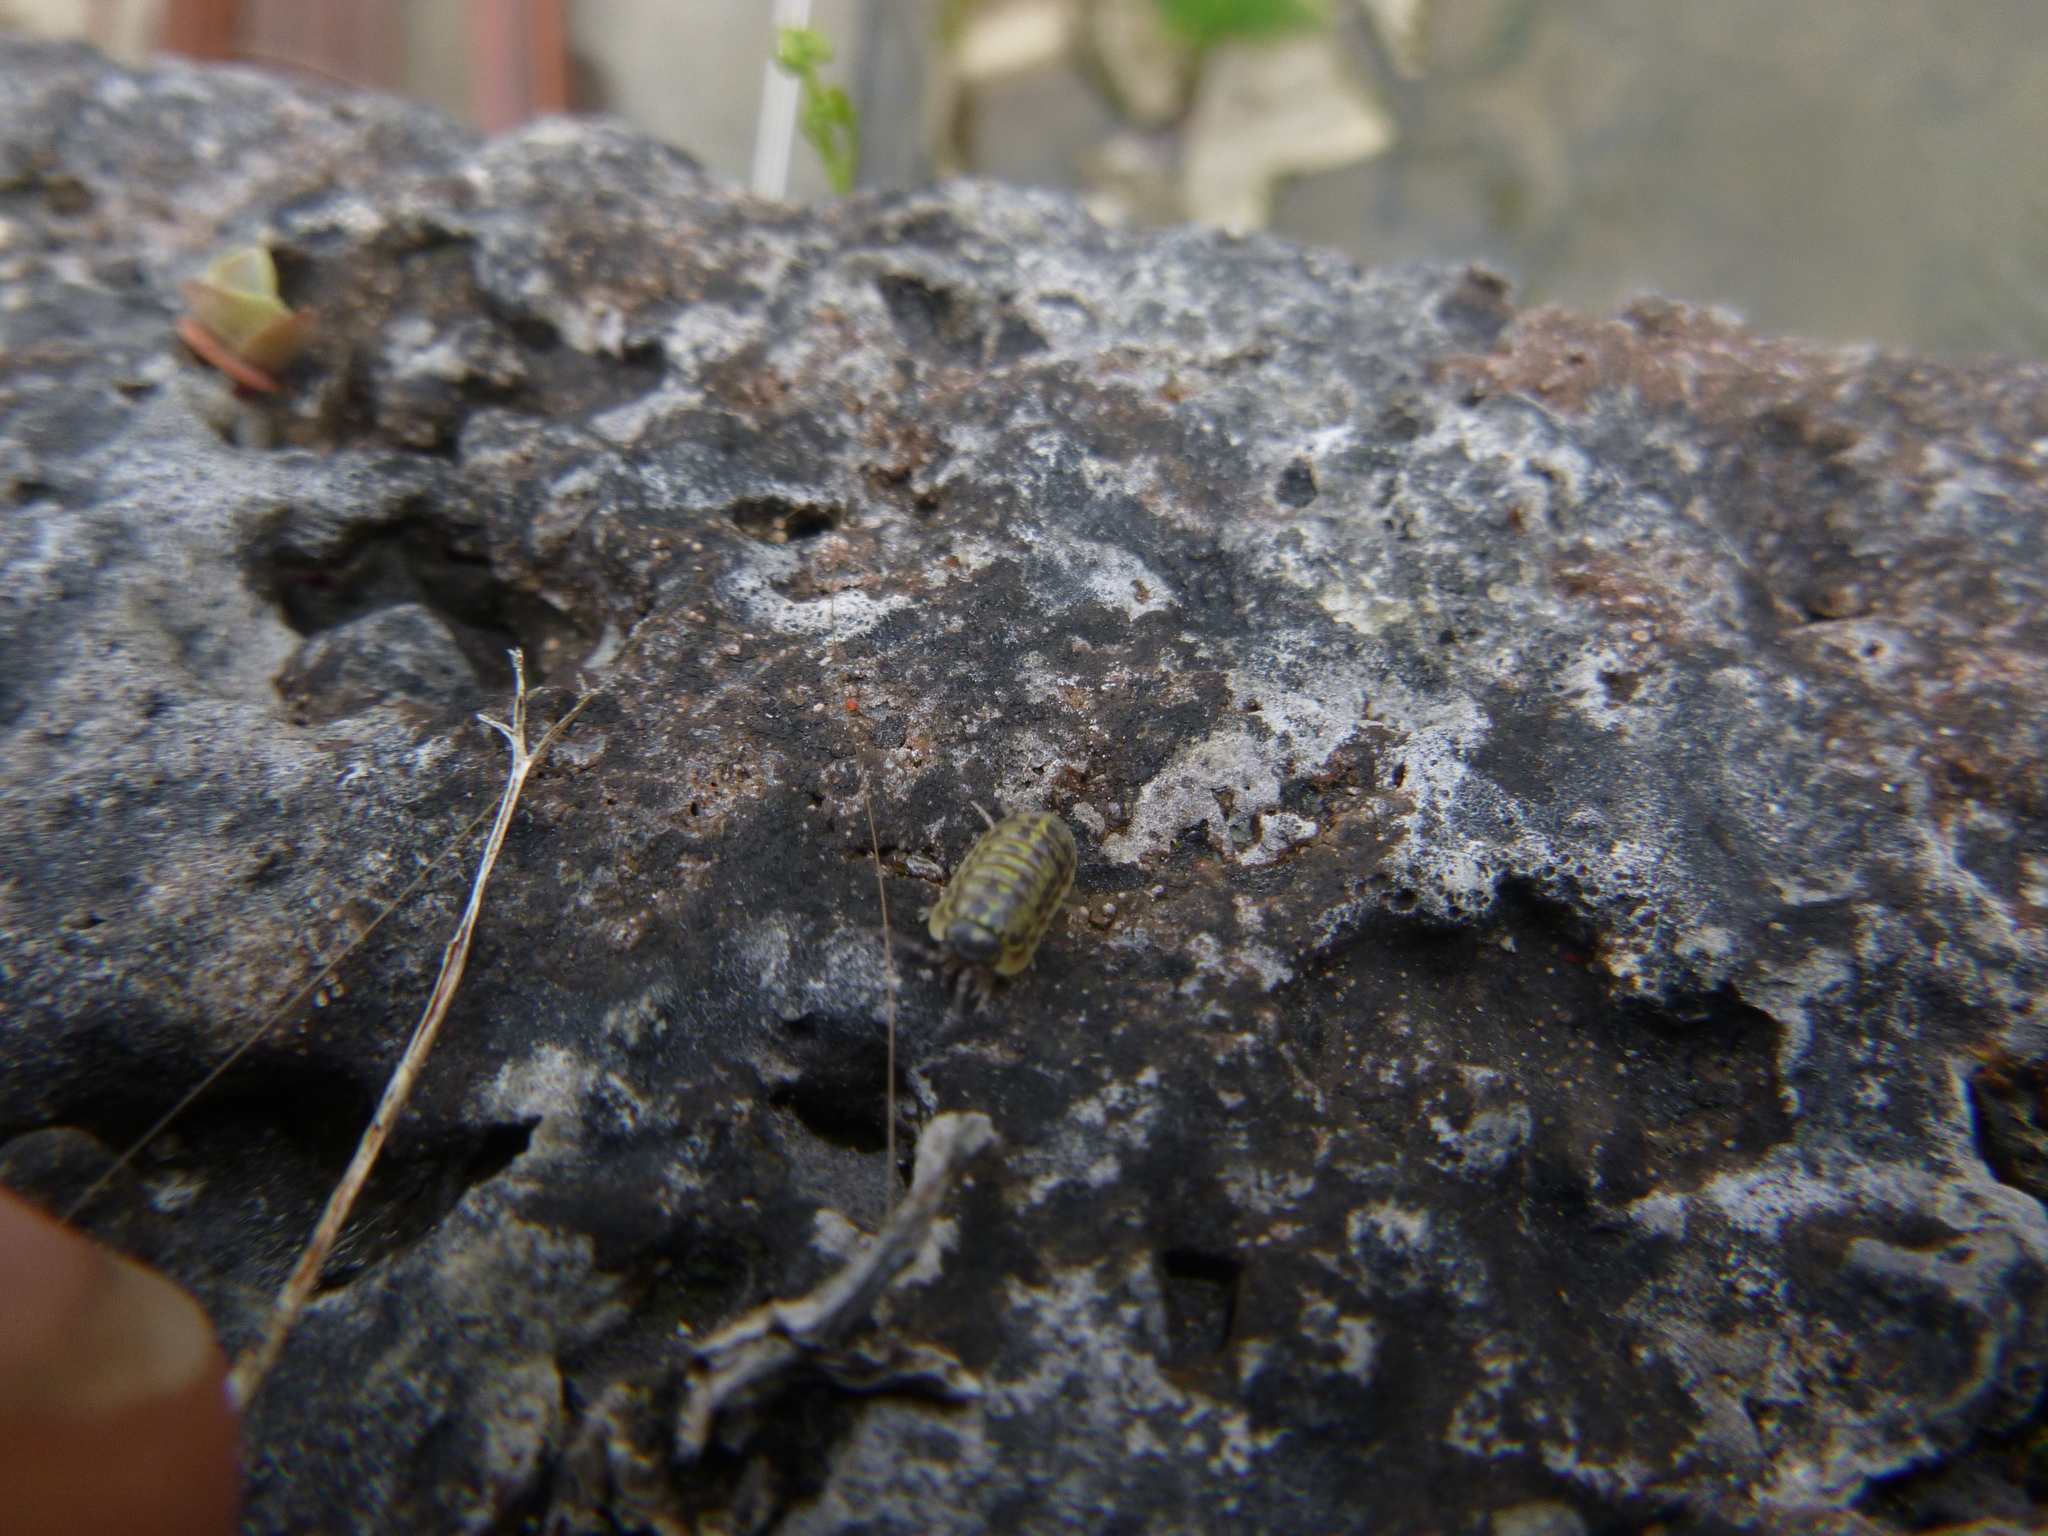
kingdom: Animalia
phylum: Arthropoda
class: Malacostraca
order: Isopoda
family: Armadillidiidae
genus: Armadillidium
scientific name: Armadillidium versicolor
